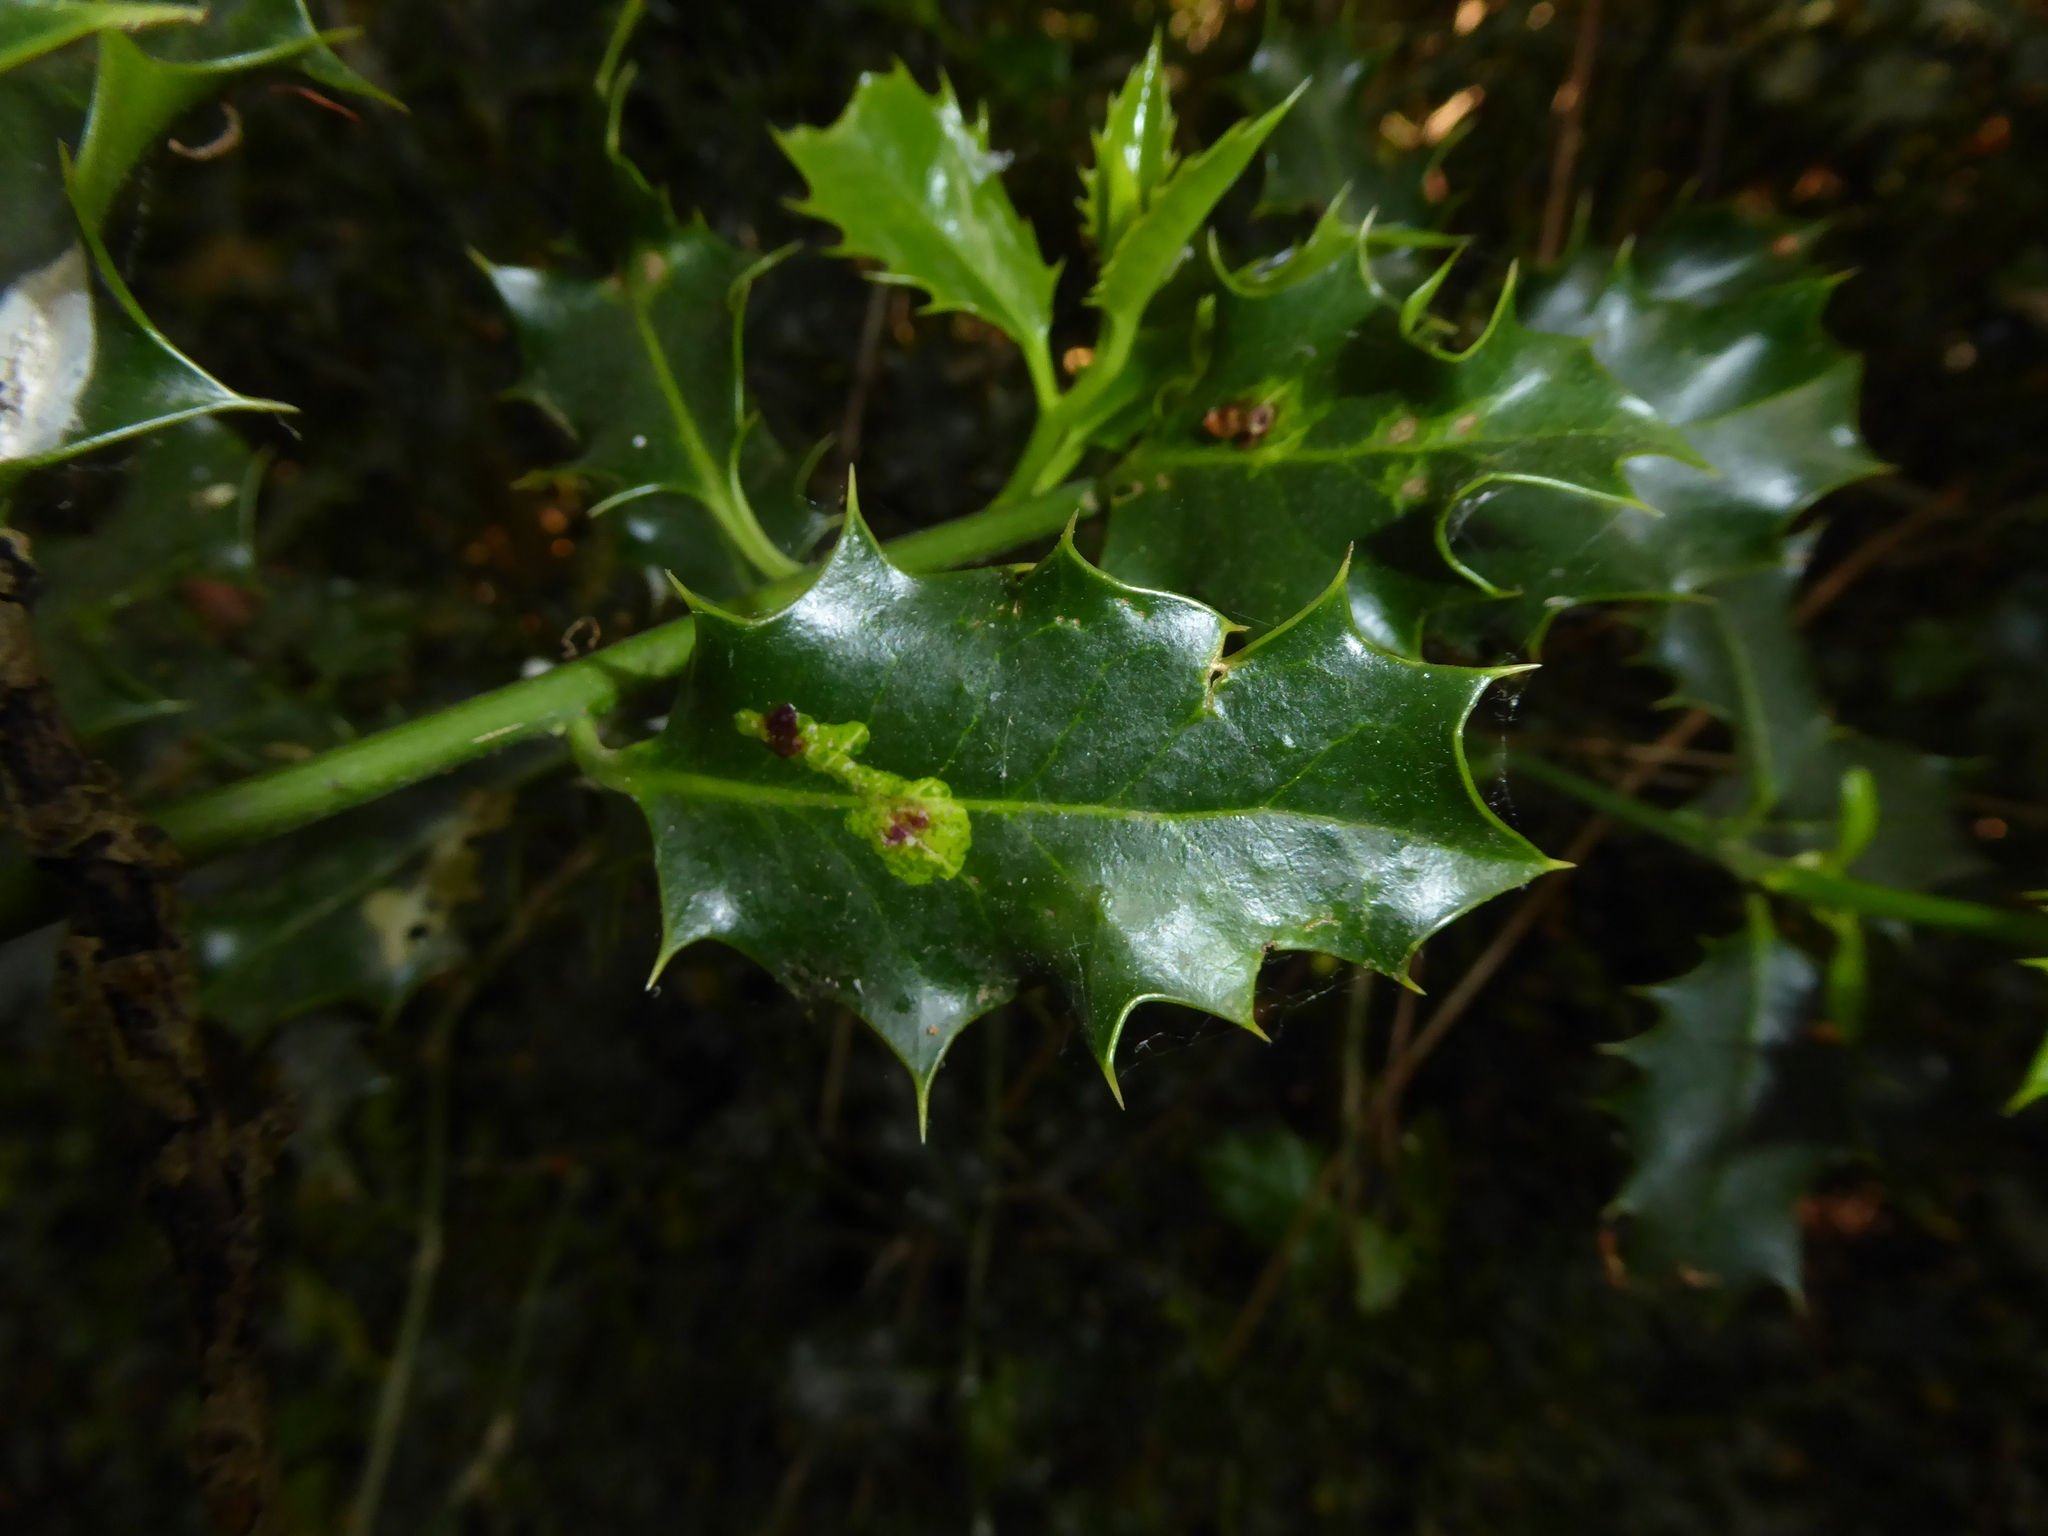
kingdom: Animalia
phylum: Arthropoda
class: Insecta
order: Diptera
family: Agromyzidae
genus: Phytomyza
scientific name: Phytomyza ilicis
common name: Holly leafminer
